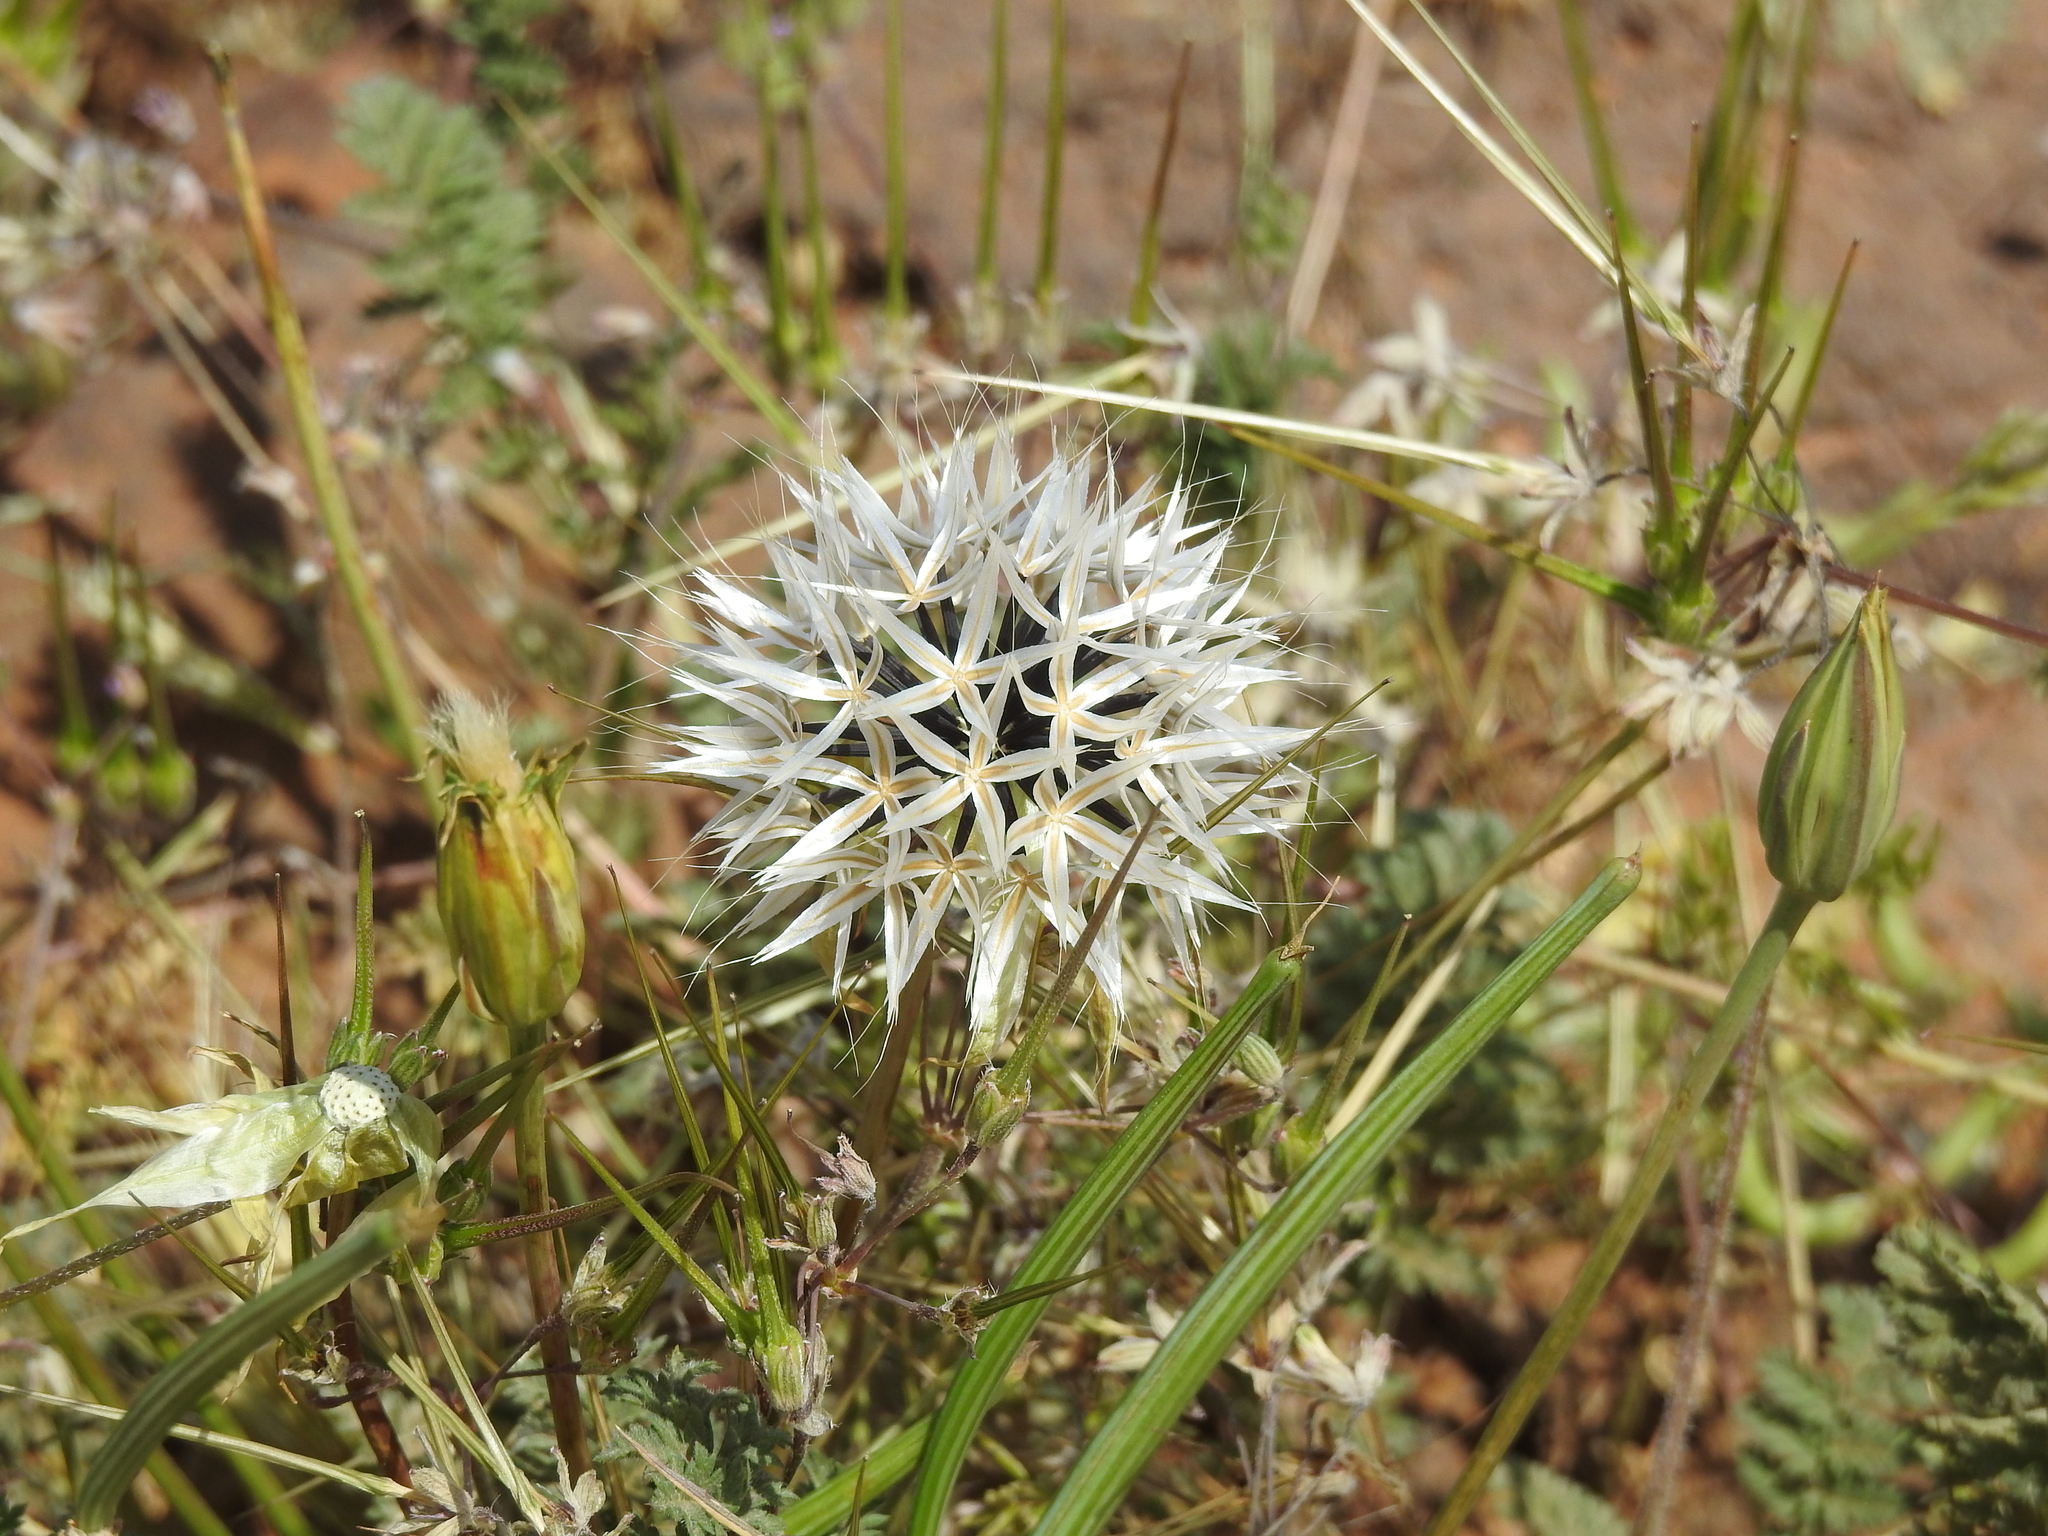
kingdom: Plantae
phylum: Tracheophyta
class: Magnoliopsida
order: Asterales
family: Asteraceae
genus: Microseris
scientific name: Microseris lindleyi
